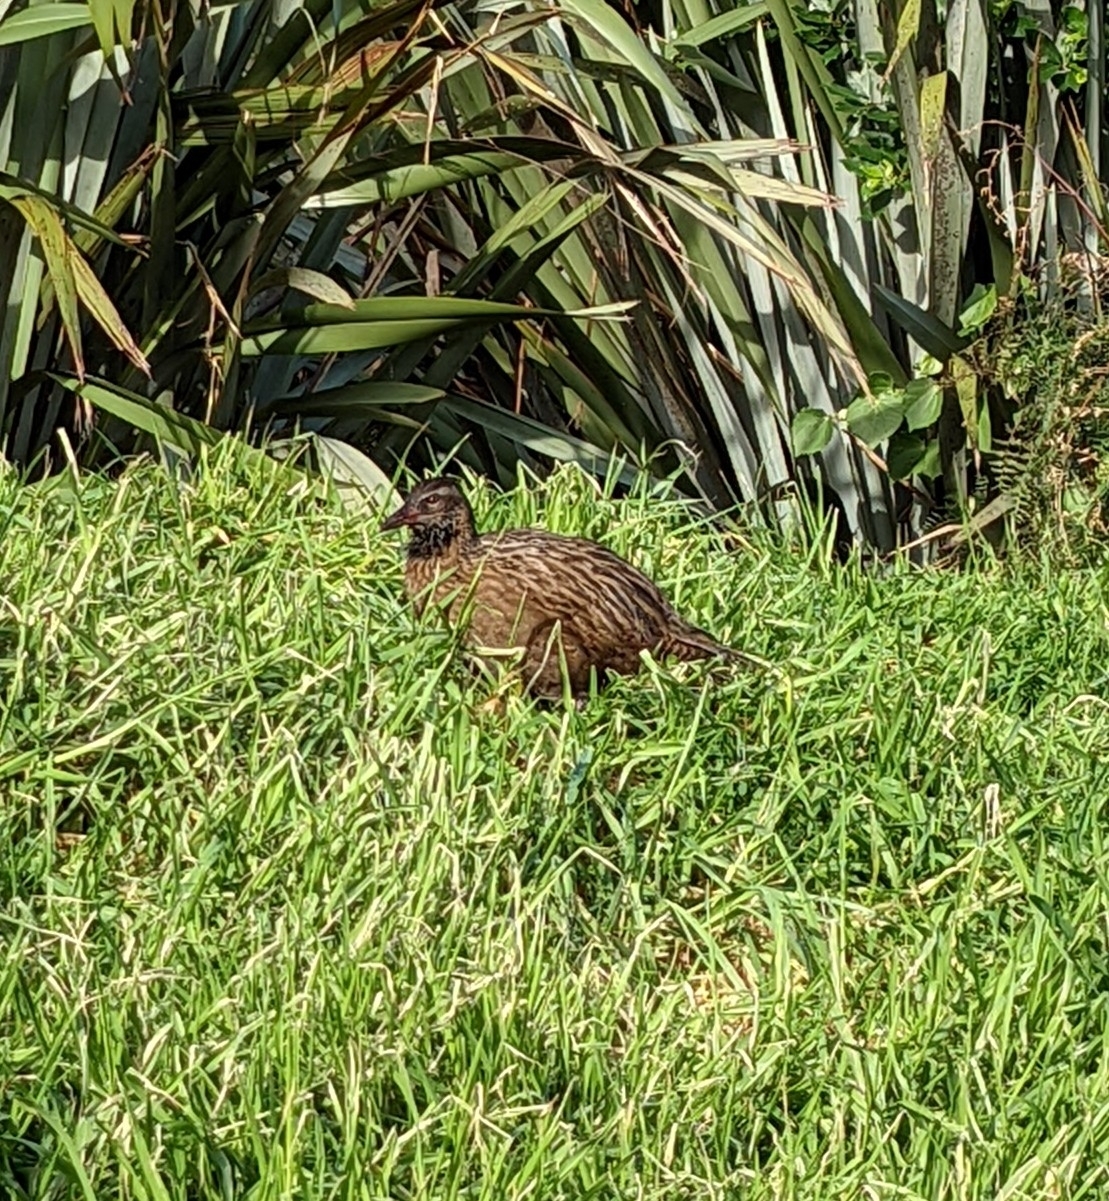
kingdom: Animalia
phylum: Chordata
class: Aves
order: Gruiformes
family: Rallidae
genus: Gallirallus
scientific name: Gallirallus australis
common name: Weka
